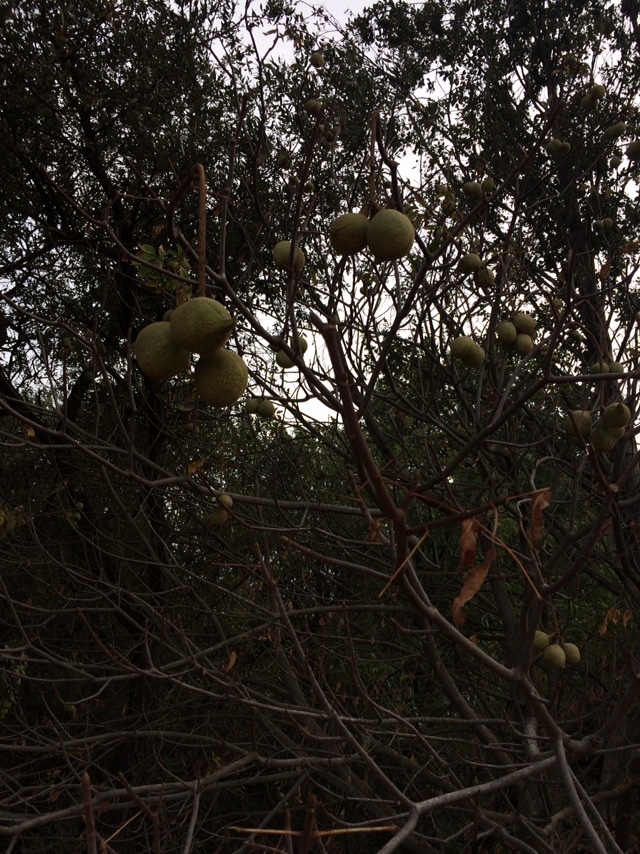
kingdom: Plantae
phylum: Tracheophyta
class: Magnoliopsida
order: Sapindales
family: Sapindaceae
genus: Aesculus
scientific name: Aesculus californica
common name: California buckeye
